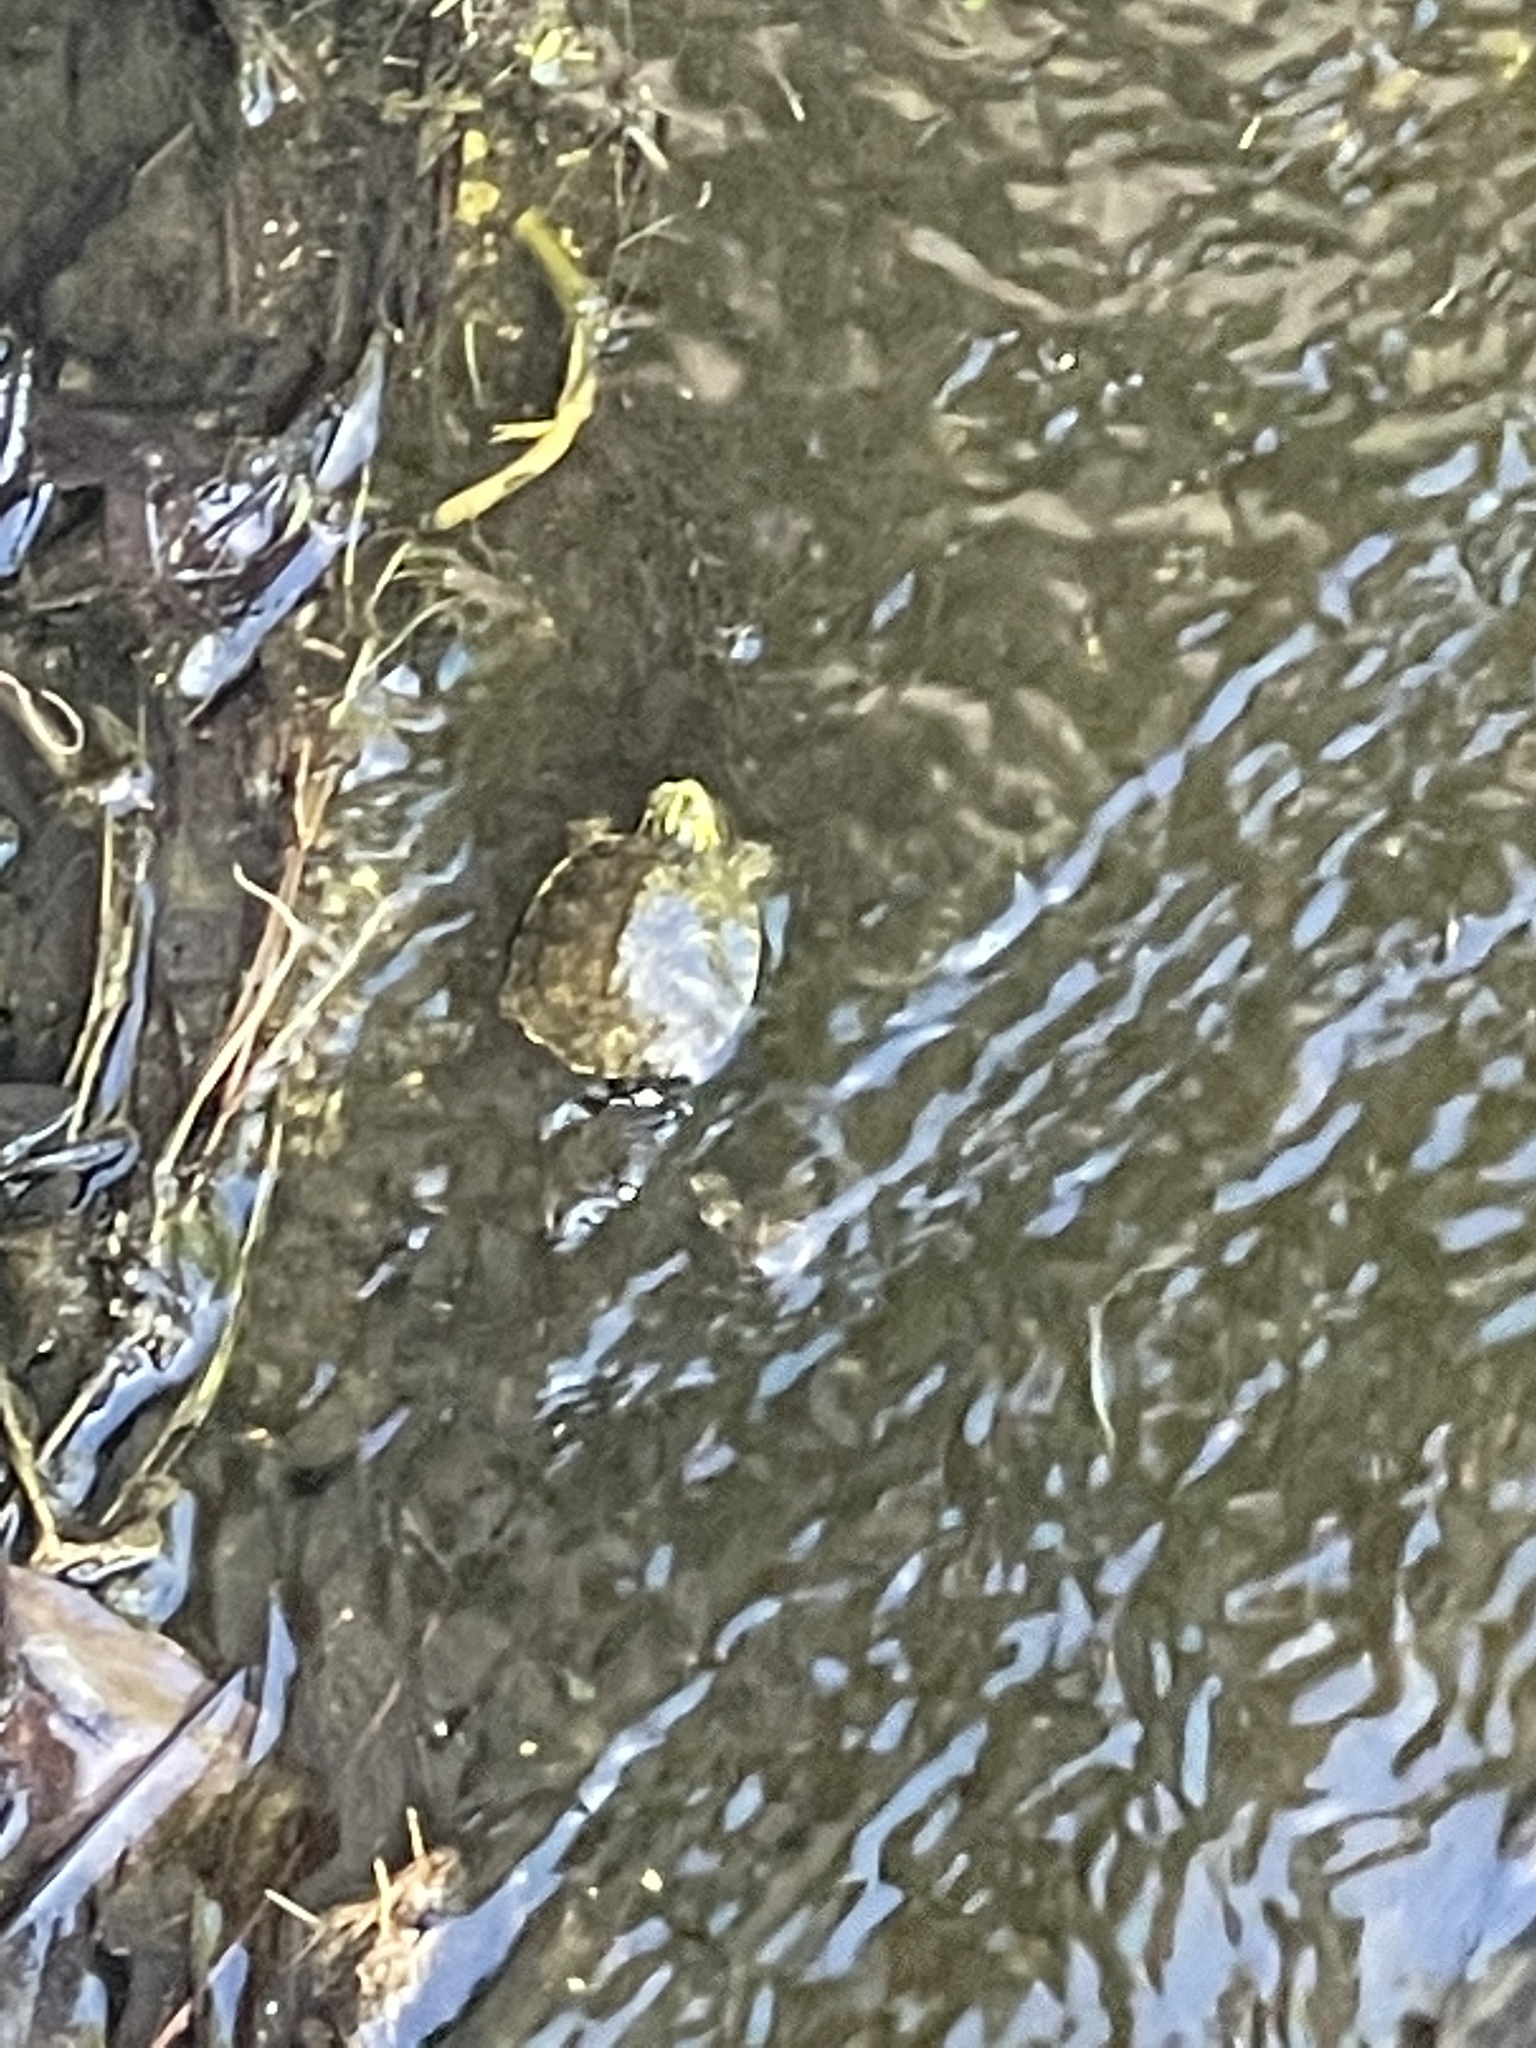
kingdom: Animalia
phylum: Chordata
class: Testudines
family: Emydidae
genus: Trachemys
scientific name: Trachemys scripta
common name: Slider
